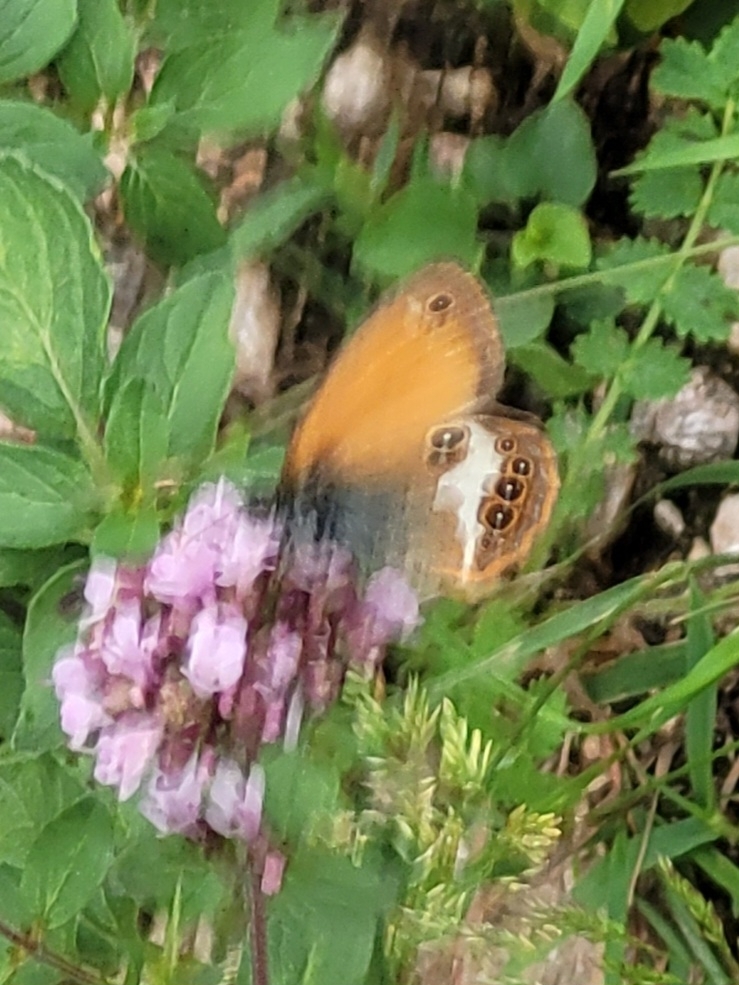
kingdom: Animalia
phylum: Arthropoda
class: Insecta
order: Lepidoptera
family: Nymphalidae
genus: Coenonympha
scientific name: Coenonympha arcania
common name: Pearly heath
